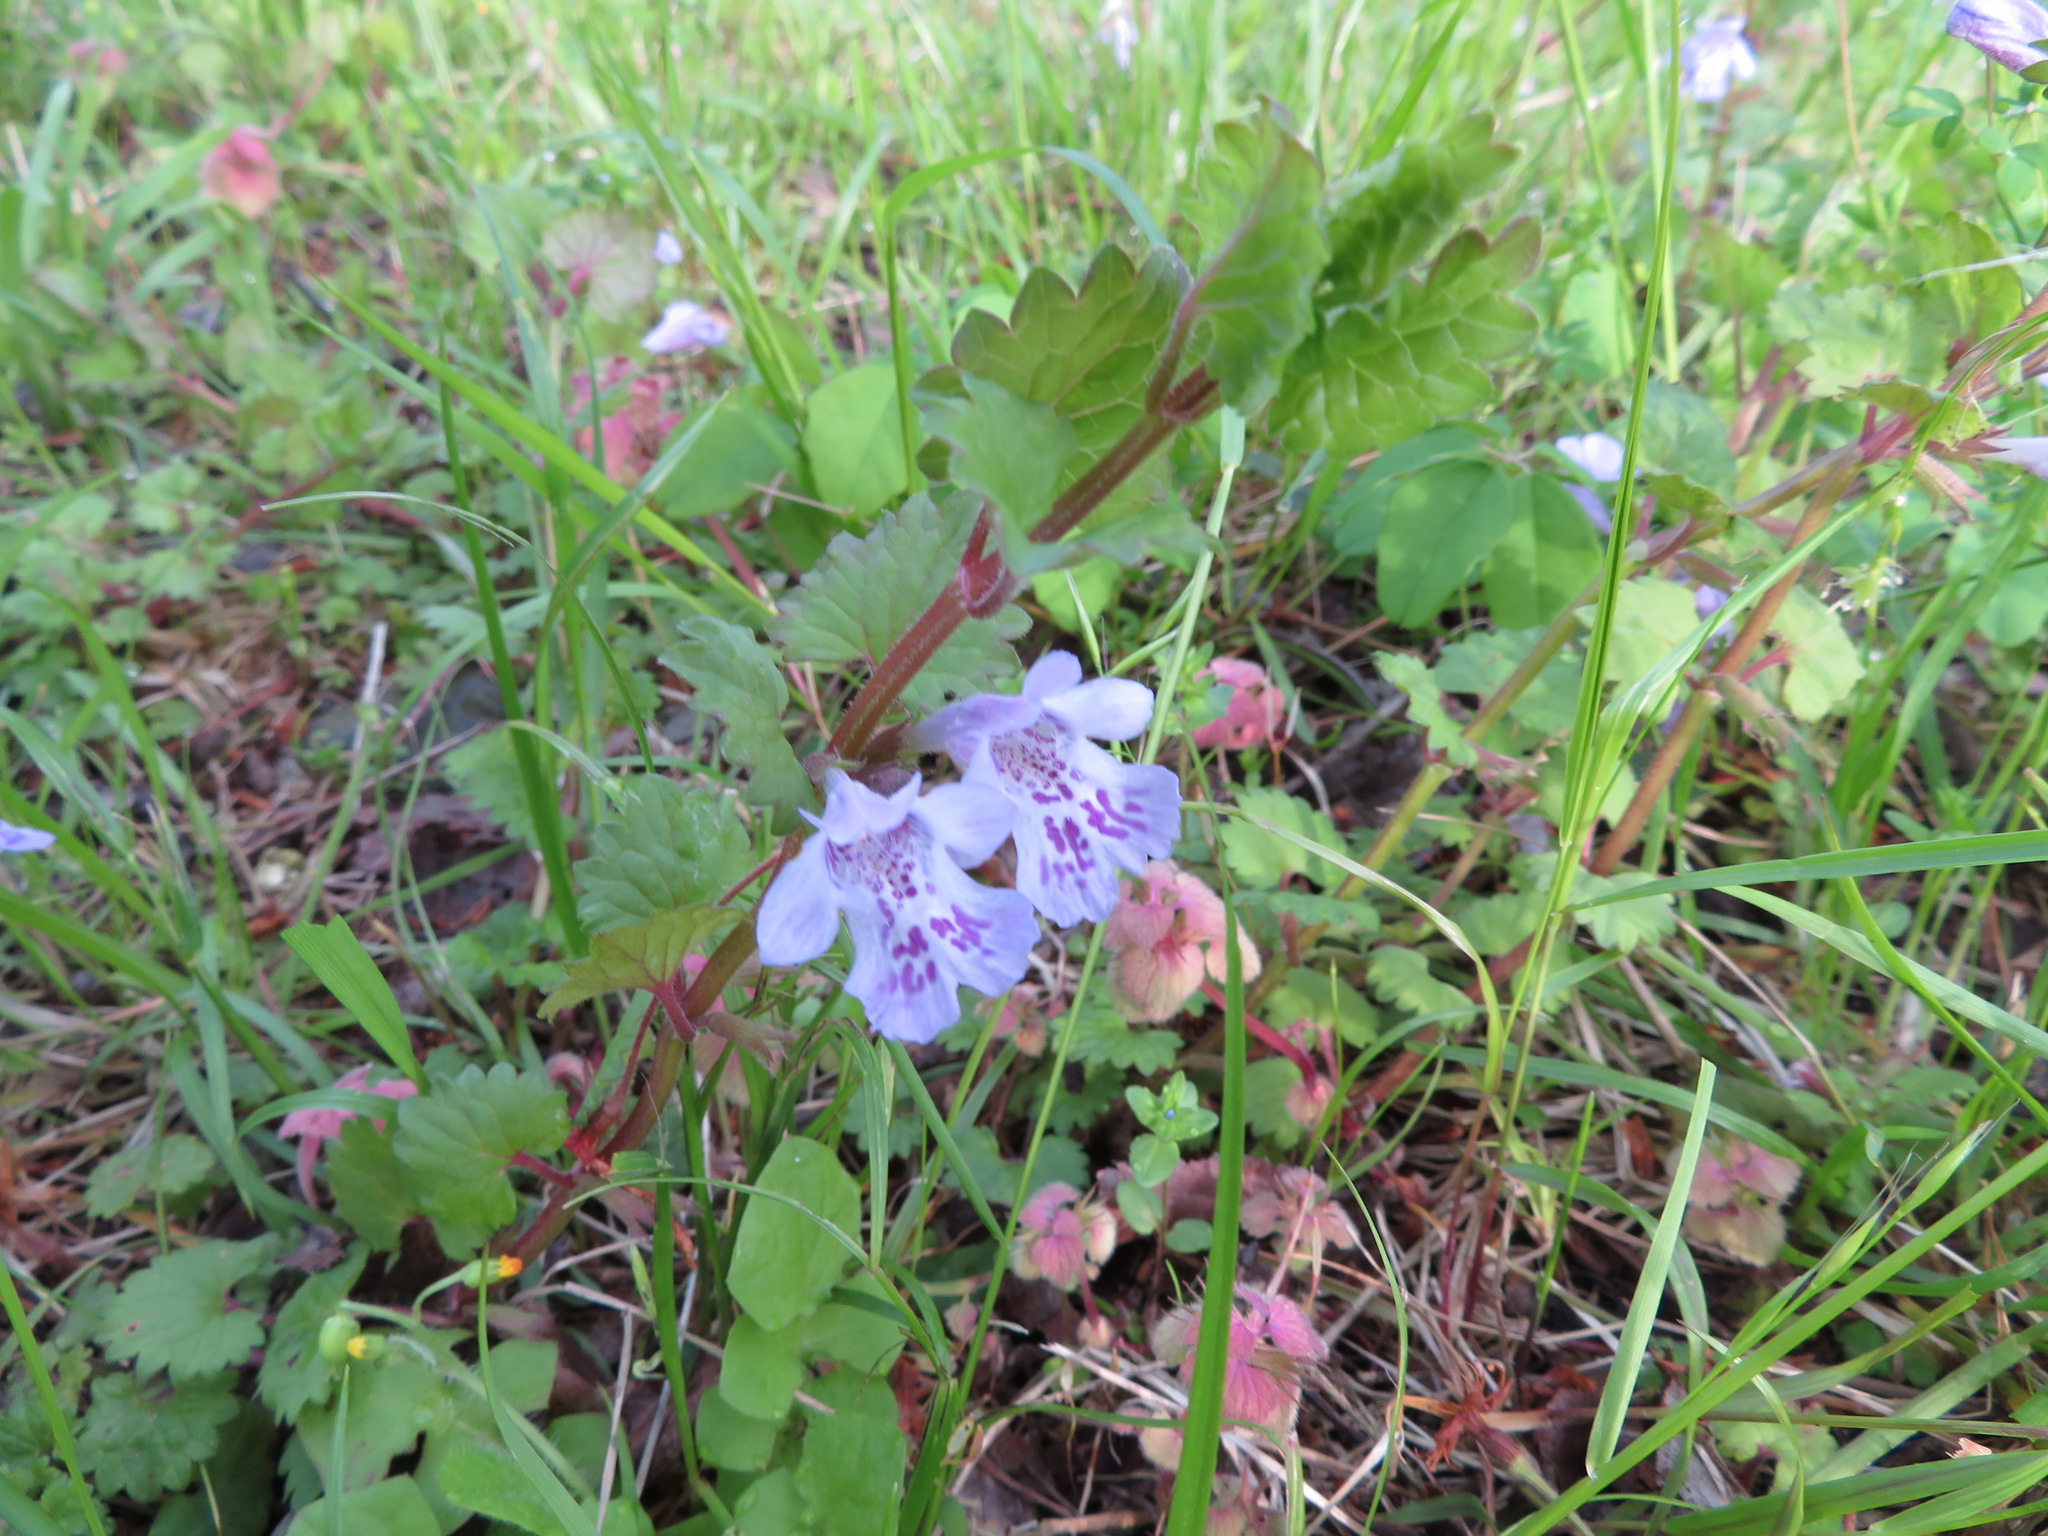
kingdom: Plantae
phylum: Tracheophyta
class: Magnoliopsida
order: Lamiales
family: Lamiaceae
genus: Glechoma
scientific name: Glechoma grandis
